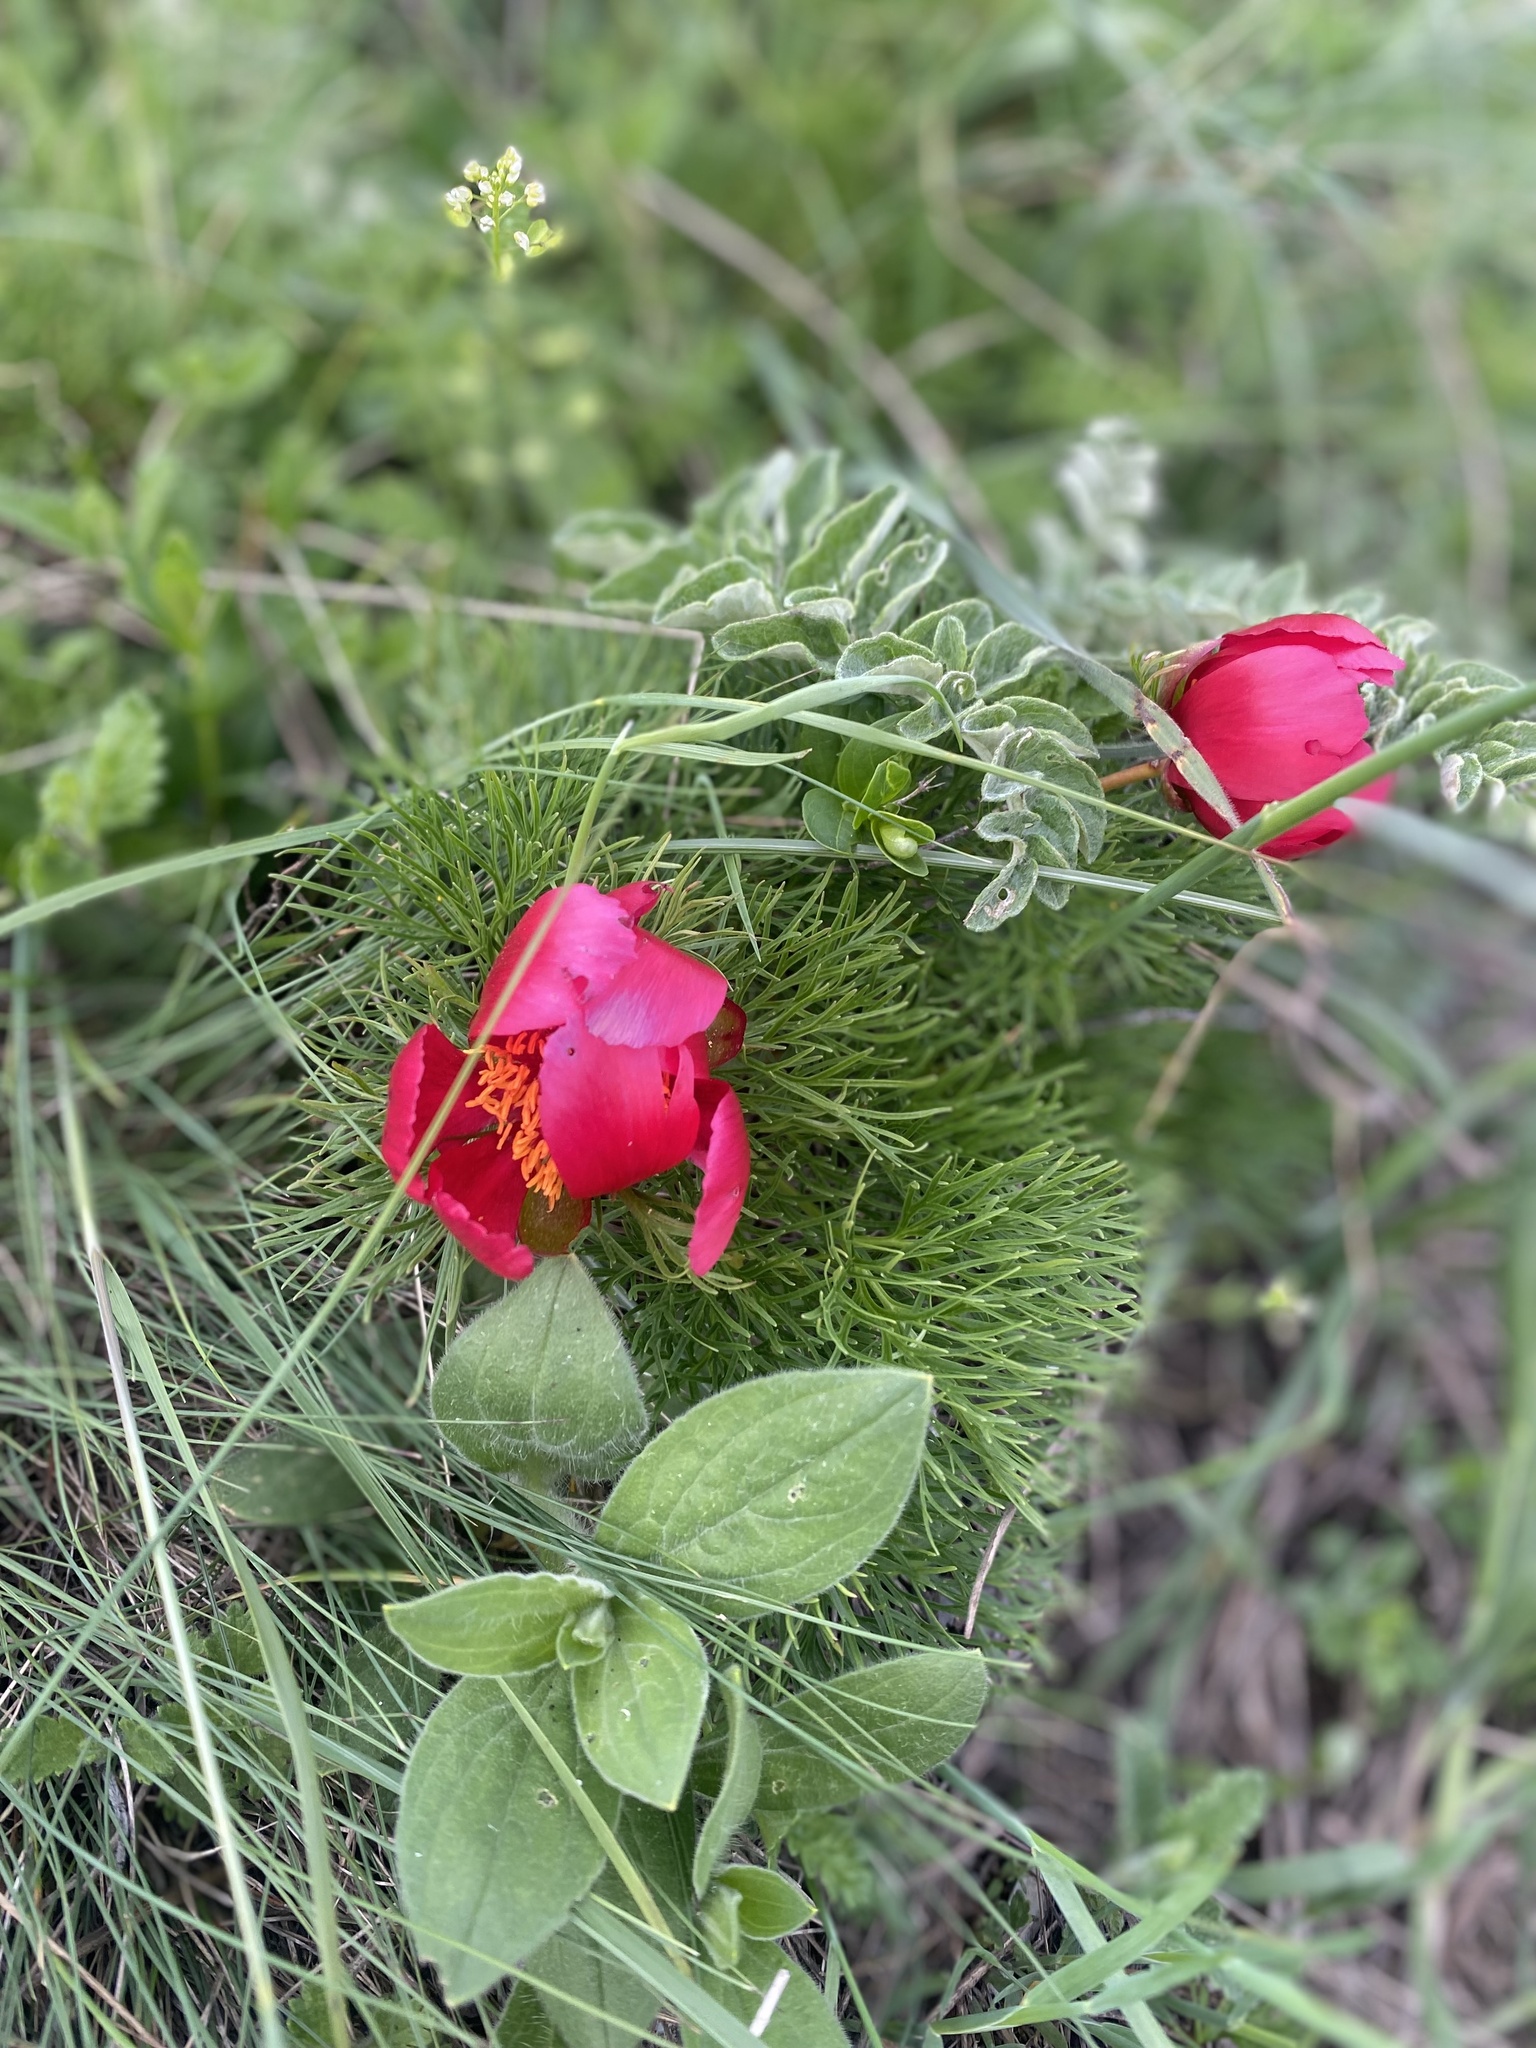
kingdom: Plantae
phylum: Tracheophyta
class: Magnoliopsida
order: Saxifragales
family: Paeoniaceae
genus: Paeonia
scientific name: Paeonia tenuifolia
